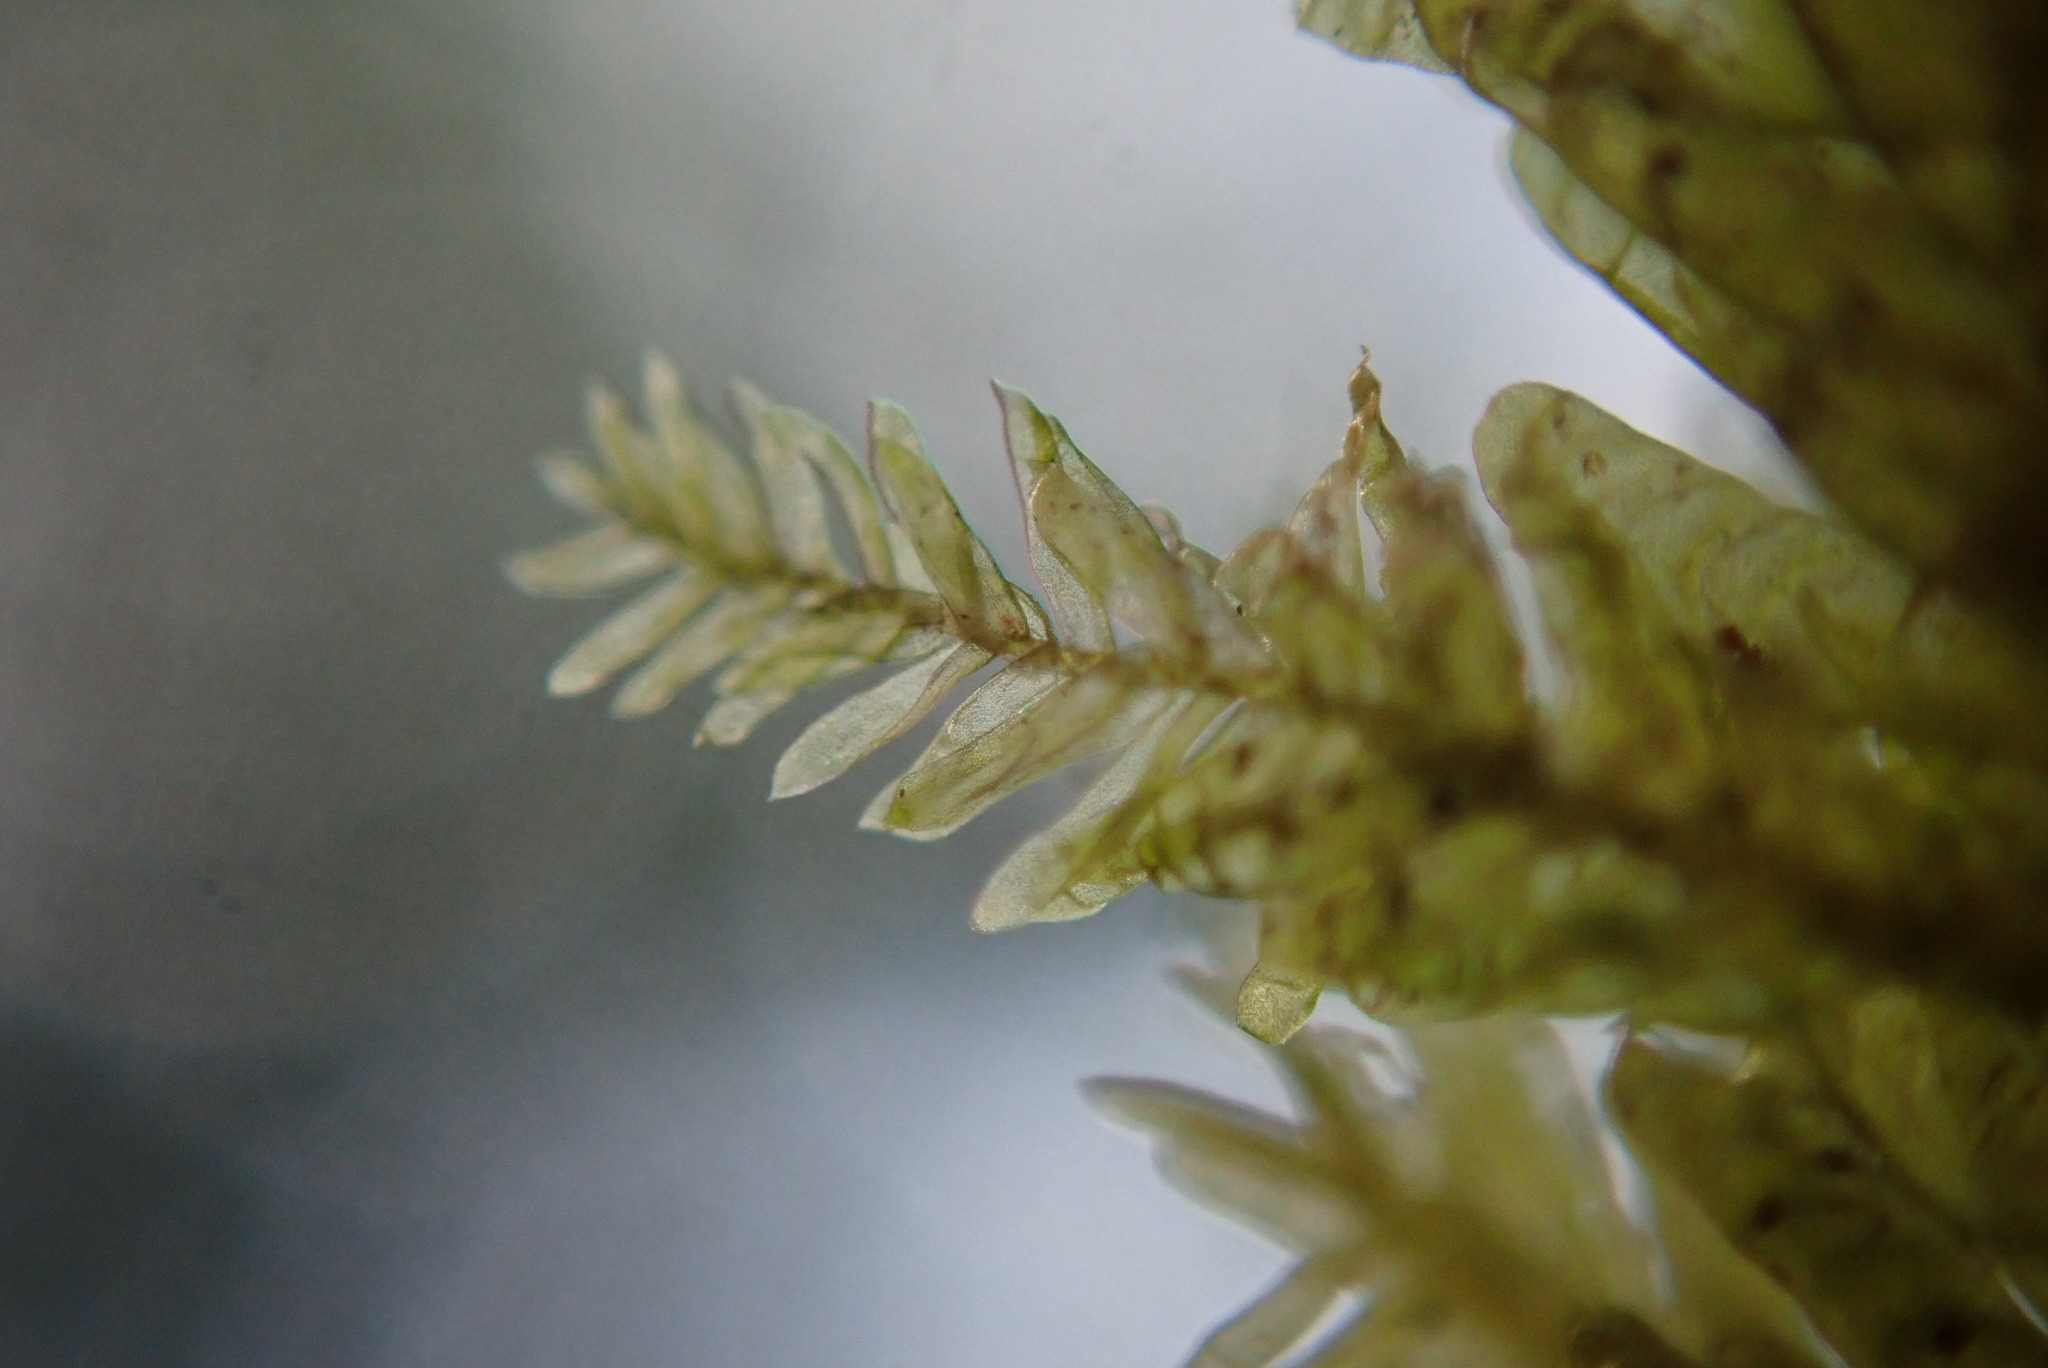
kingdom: Plantae
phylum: Bryophyta
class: Bryopsida
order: Hypnales
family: Neckeraceae
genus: Neckera
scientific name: Neckera douglasii
